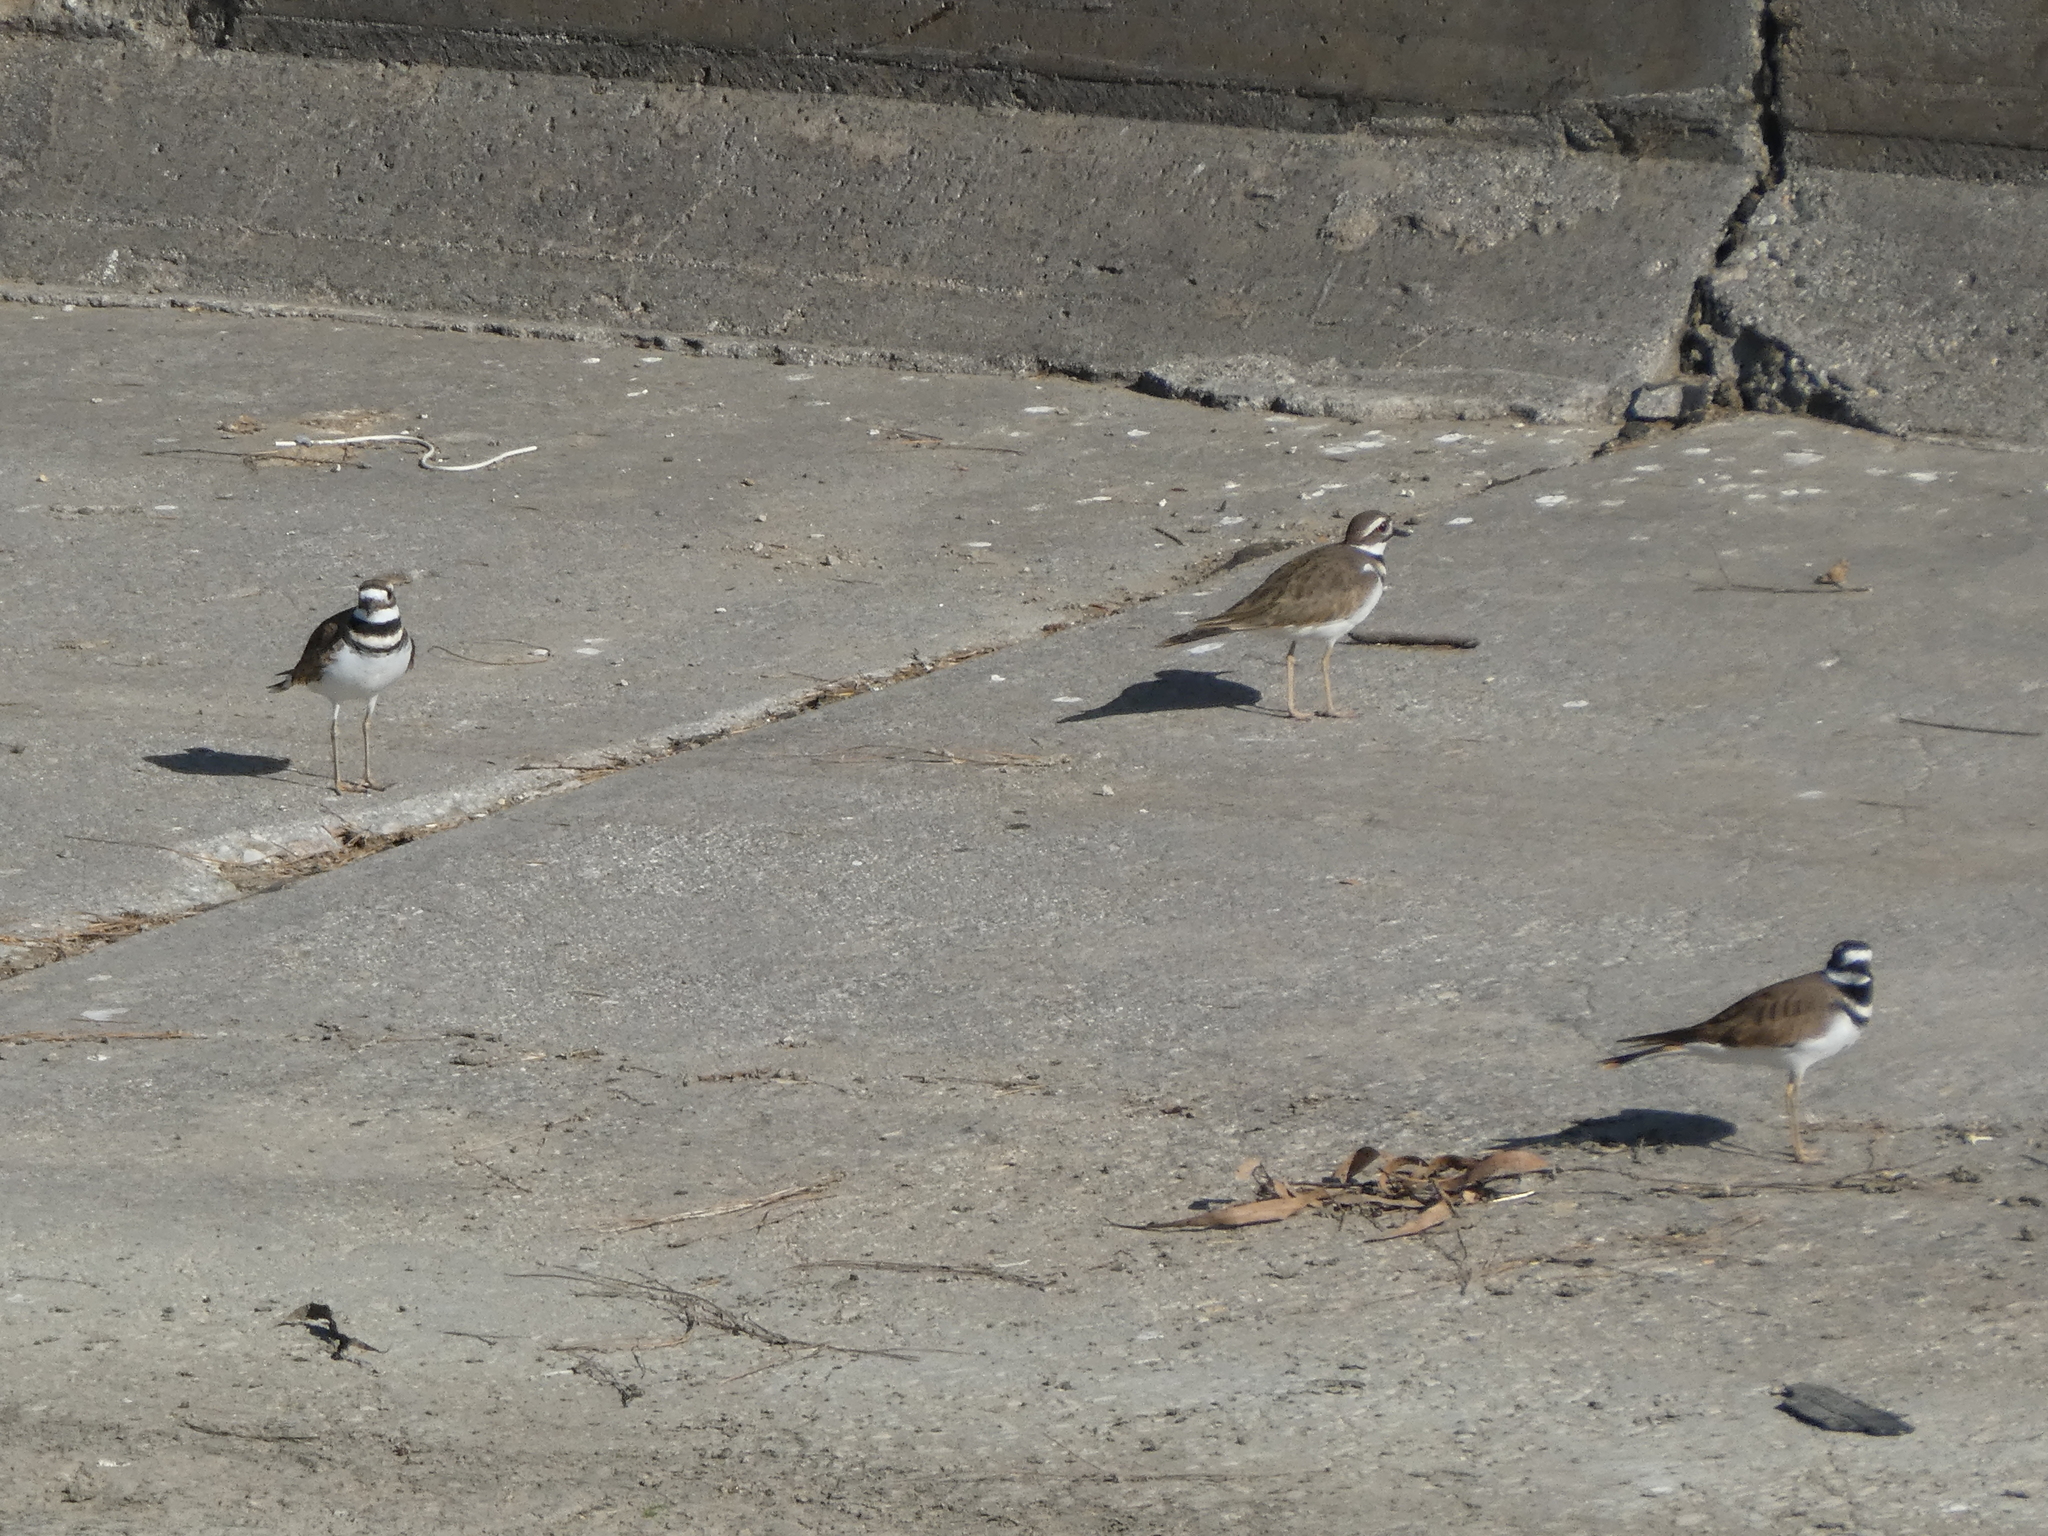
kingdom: Animalia
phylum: Chordata
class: Aves
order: Charadriiformes
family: Charadriidae
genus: Charadrius
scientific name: Charadrius vociferus
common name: Killdeer
